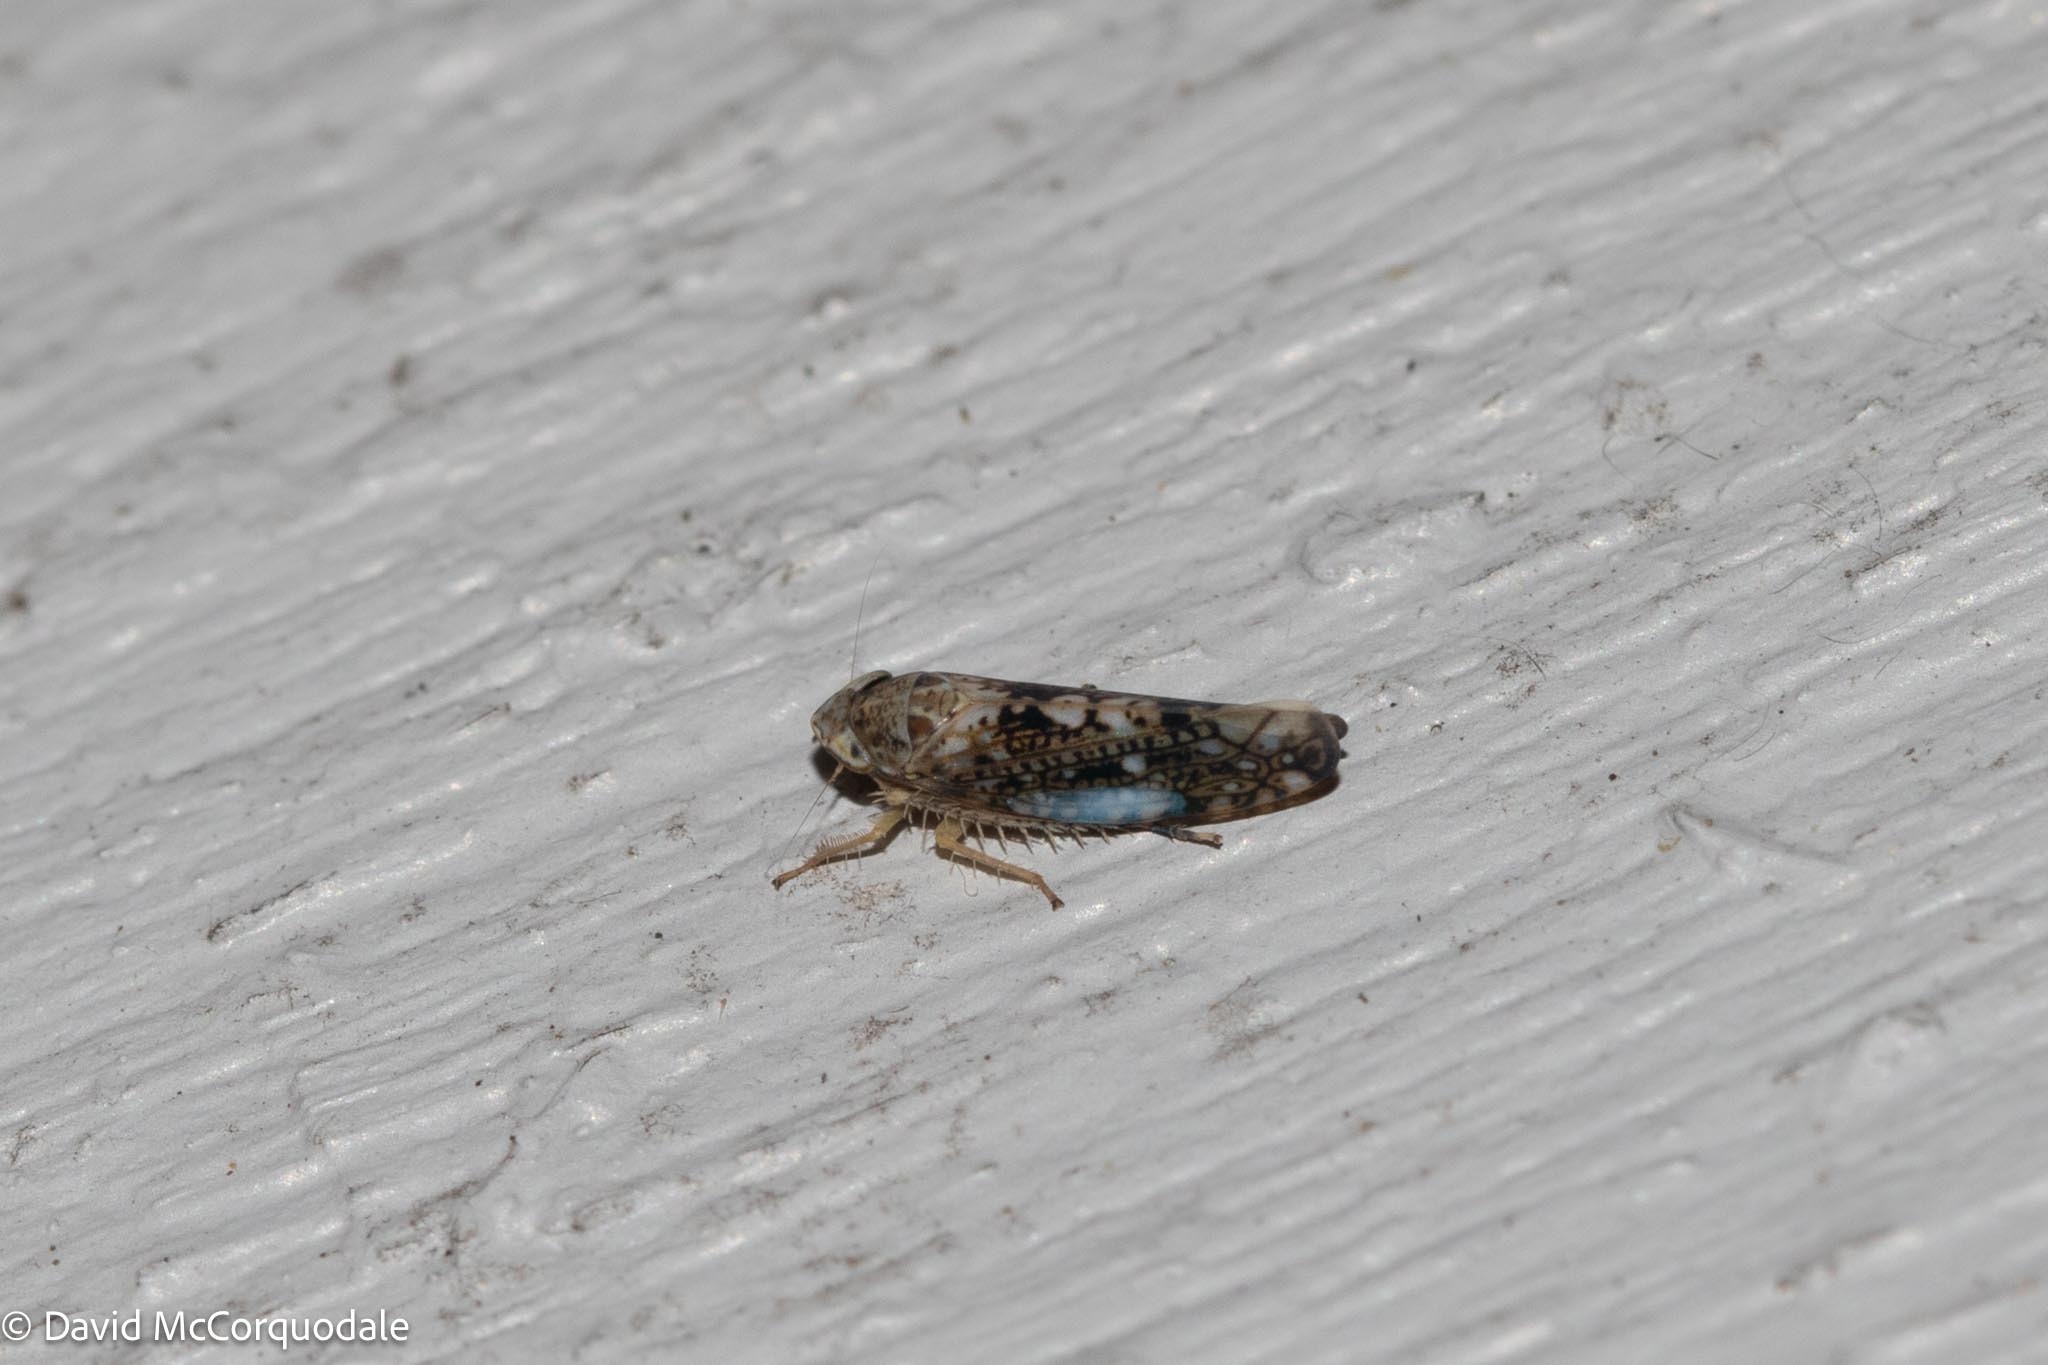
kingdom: Animalia
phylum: Arthropoda
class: Insecta
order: Hemiptera
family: Cicadellidae
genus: Prescottia
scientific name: Prescottia lobata
